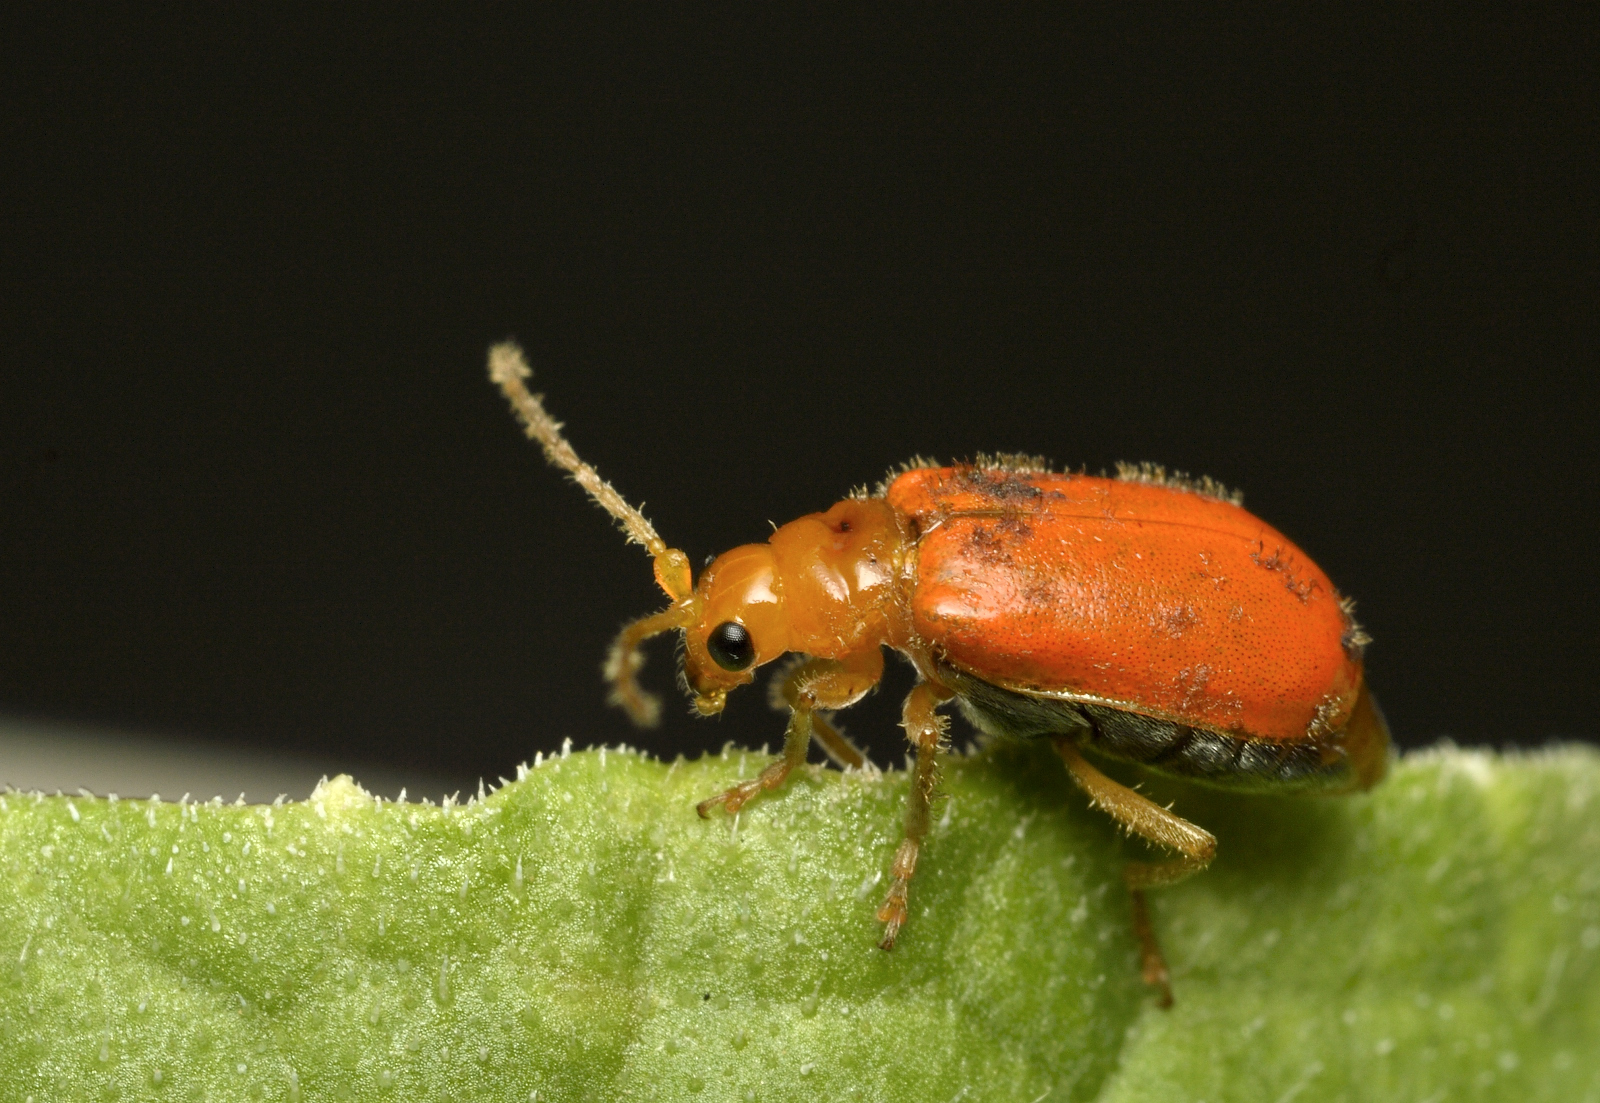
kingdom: Animalia
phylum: Arthropoda
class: Insecta
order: Coleoptera
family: Chrysomelidae
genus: Aulacophora
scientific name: Aulacophora indica
